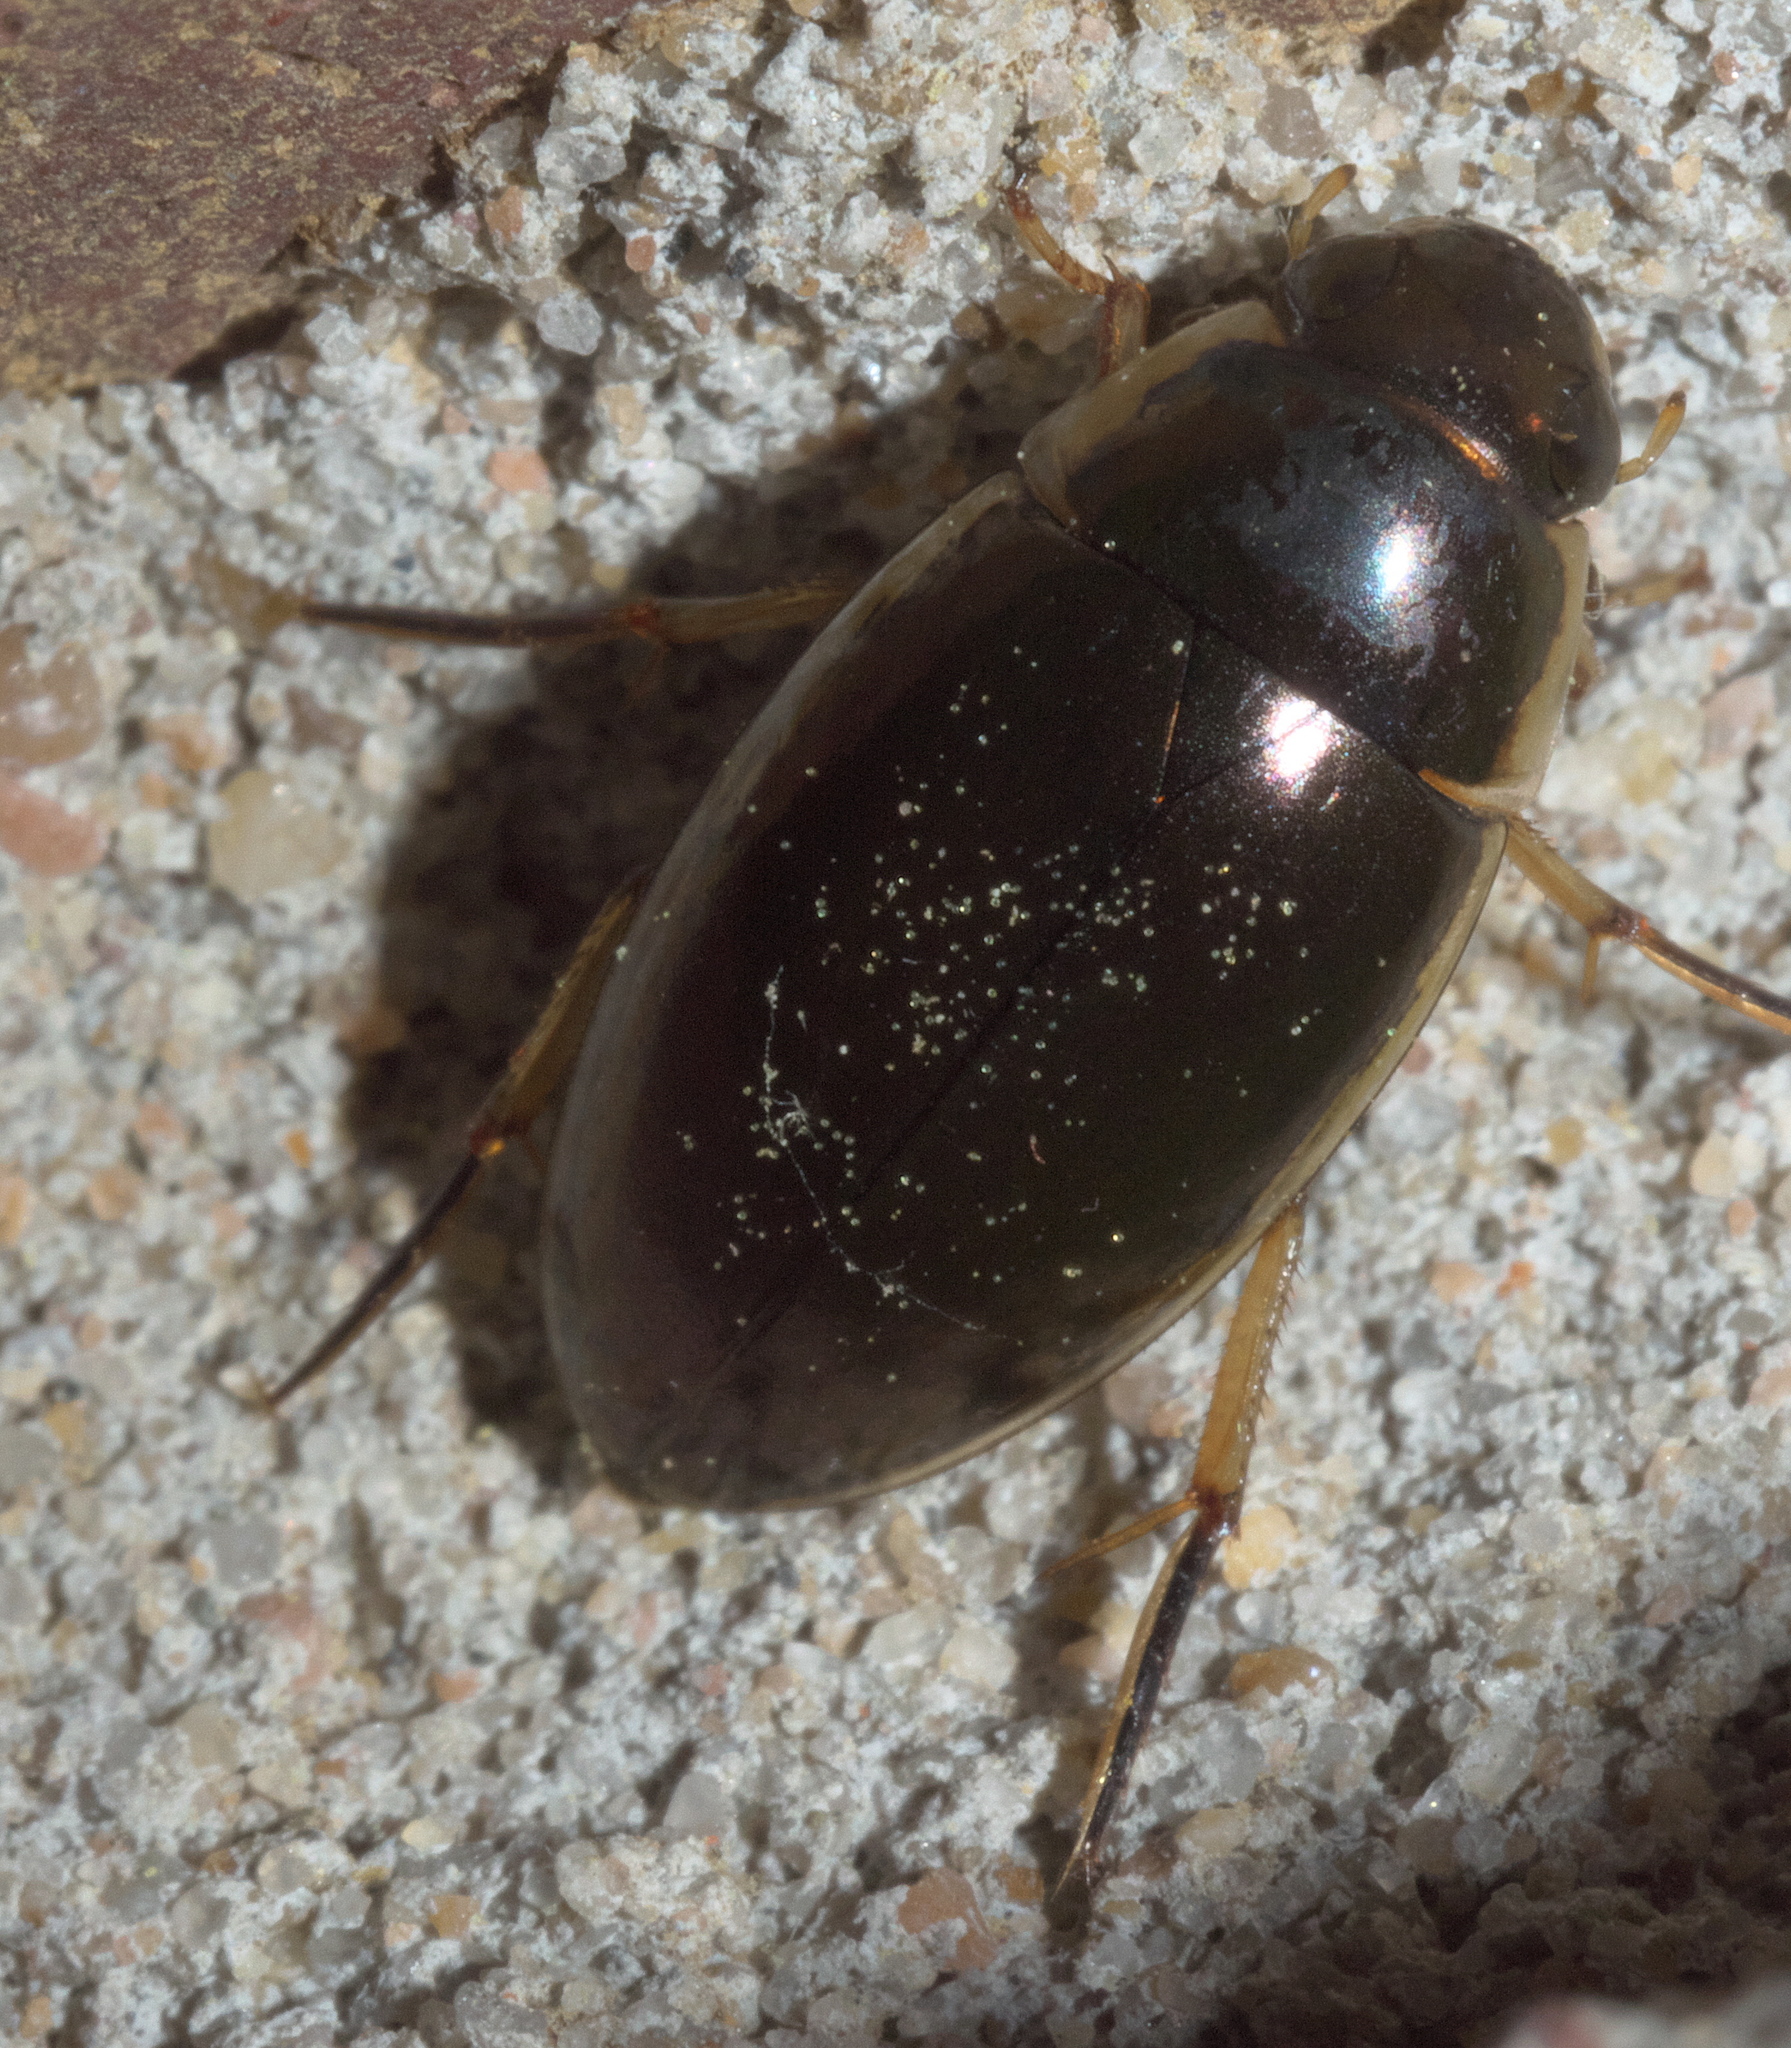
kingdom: Animalia
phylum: Arthropoda
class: Insecta
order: Coleoptera
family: Hydrophilidae
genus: Tropisternus
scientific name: Tropisternus lateralis
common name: Lateral-banded water scavenger beetle
